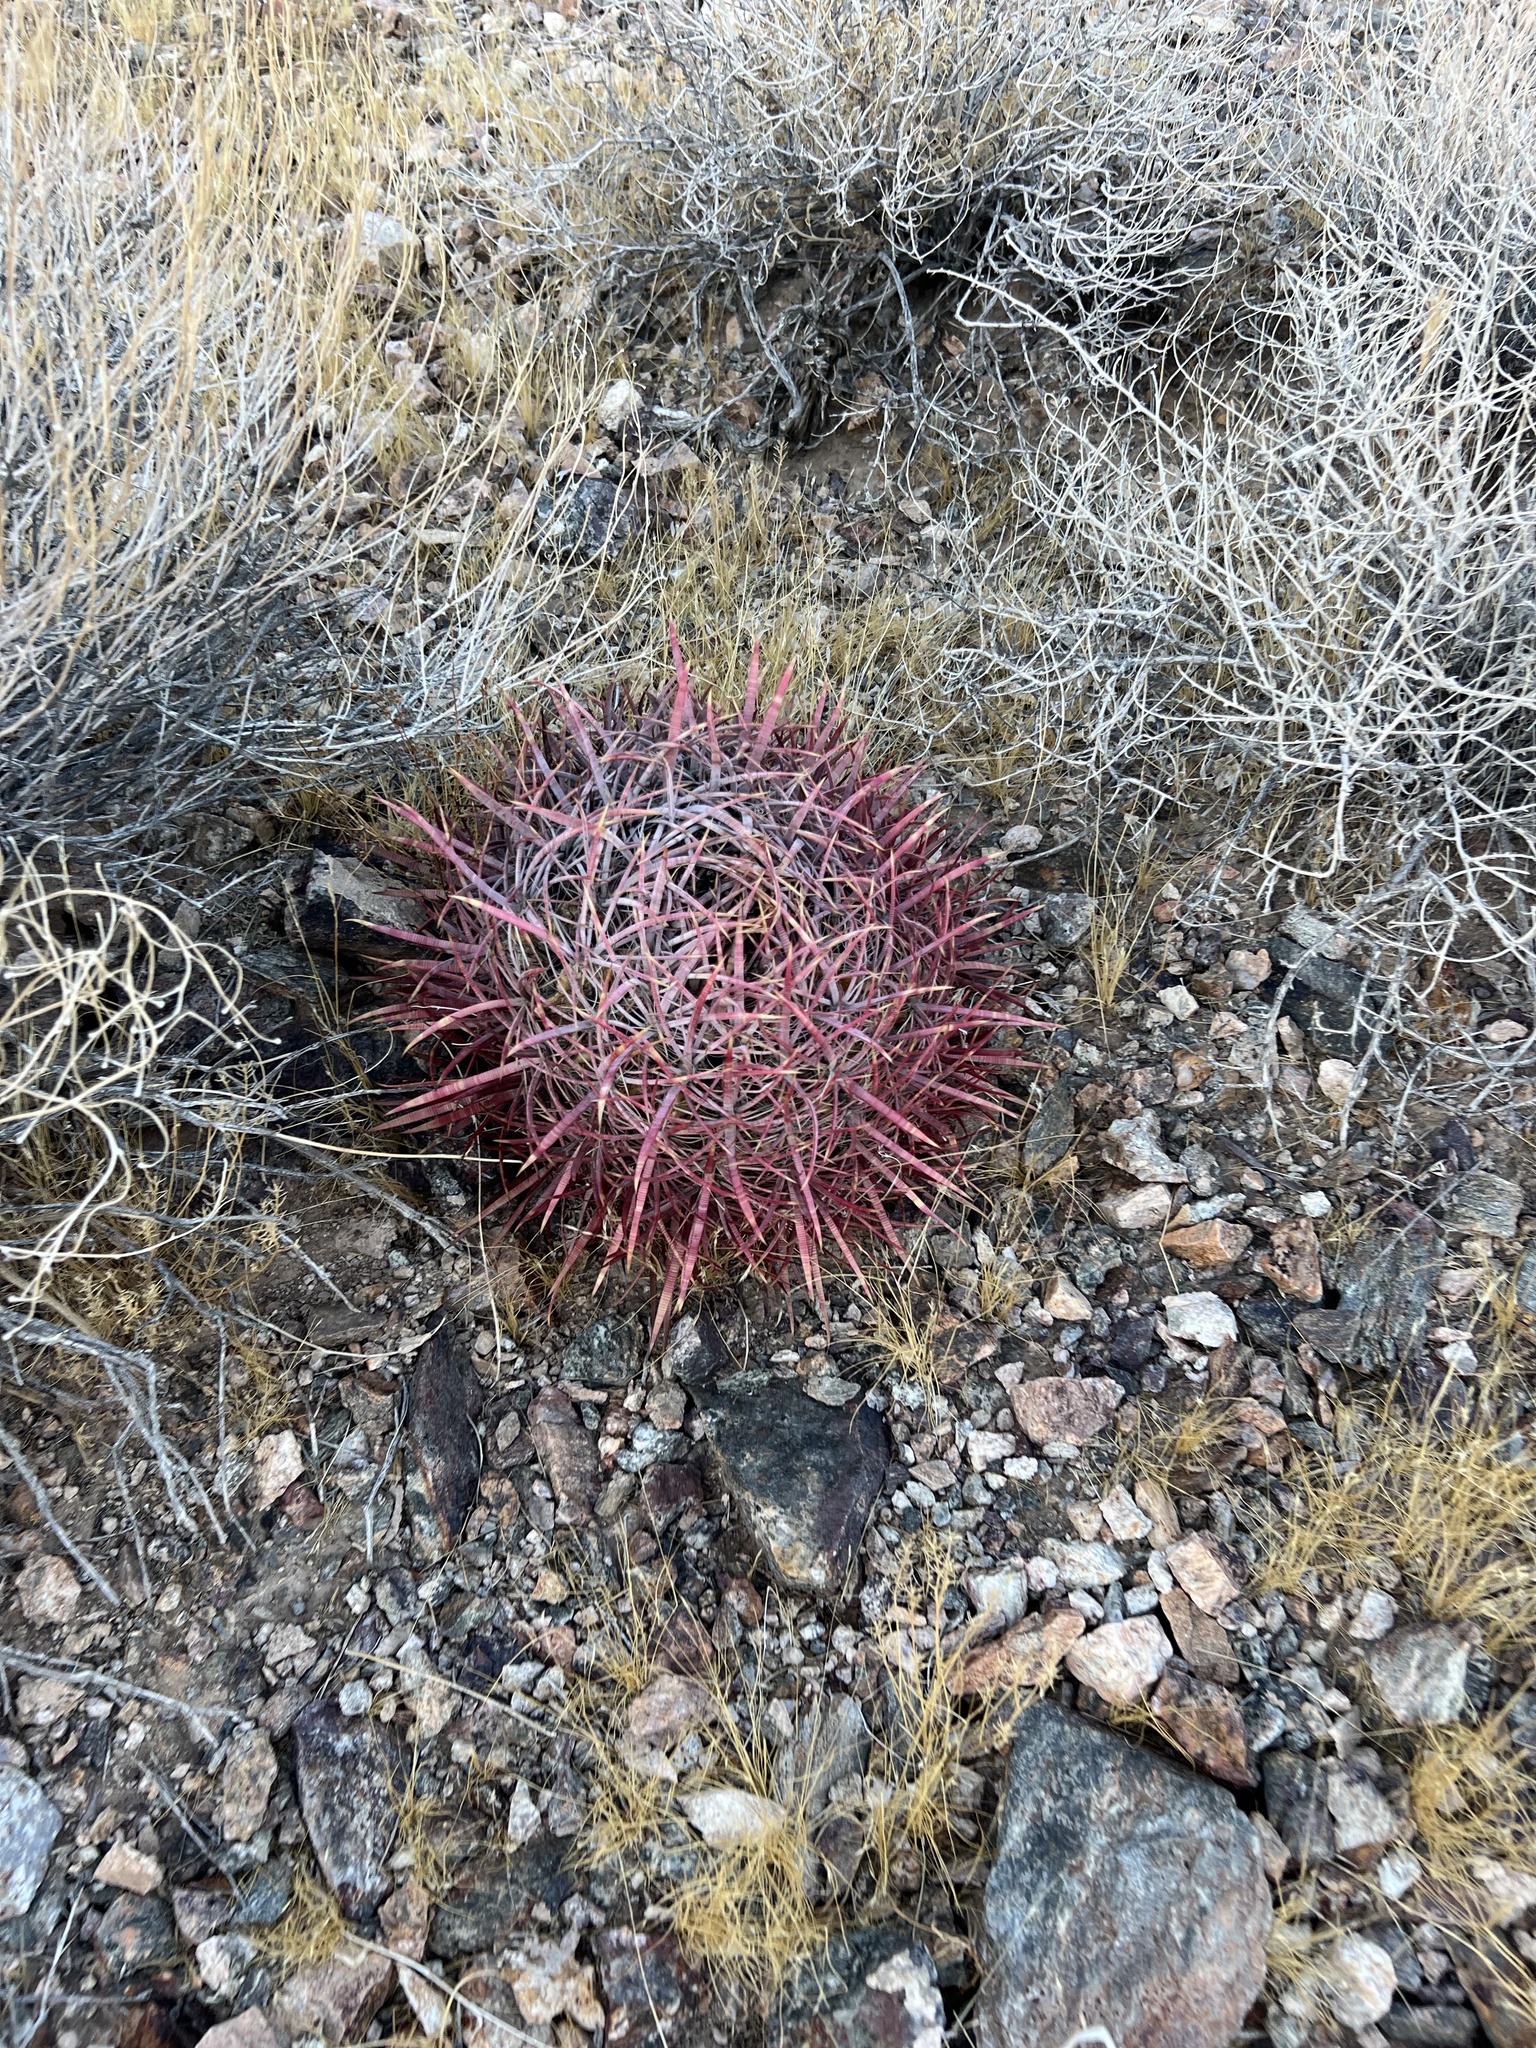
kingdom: Plantae
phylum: Tracheophyta
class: Magnoliopsida
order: Caryophyllales
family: Cactaceae
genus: Ferocactus
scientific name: Ferocactus cylindraceus
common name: California barrel cactus
